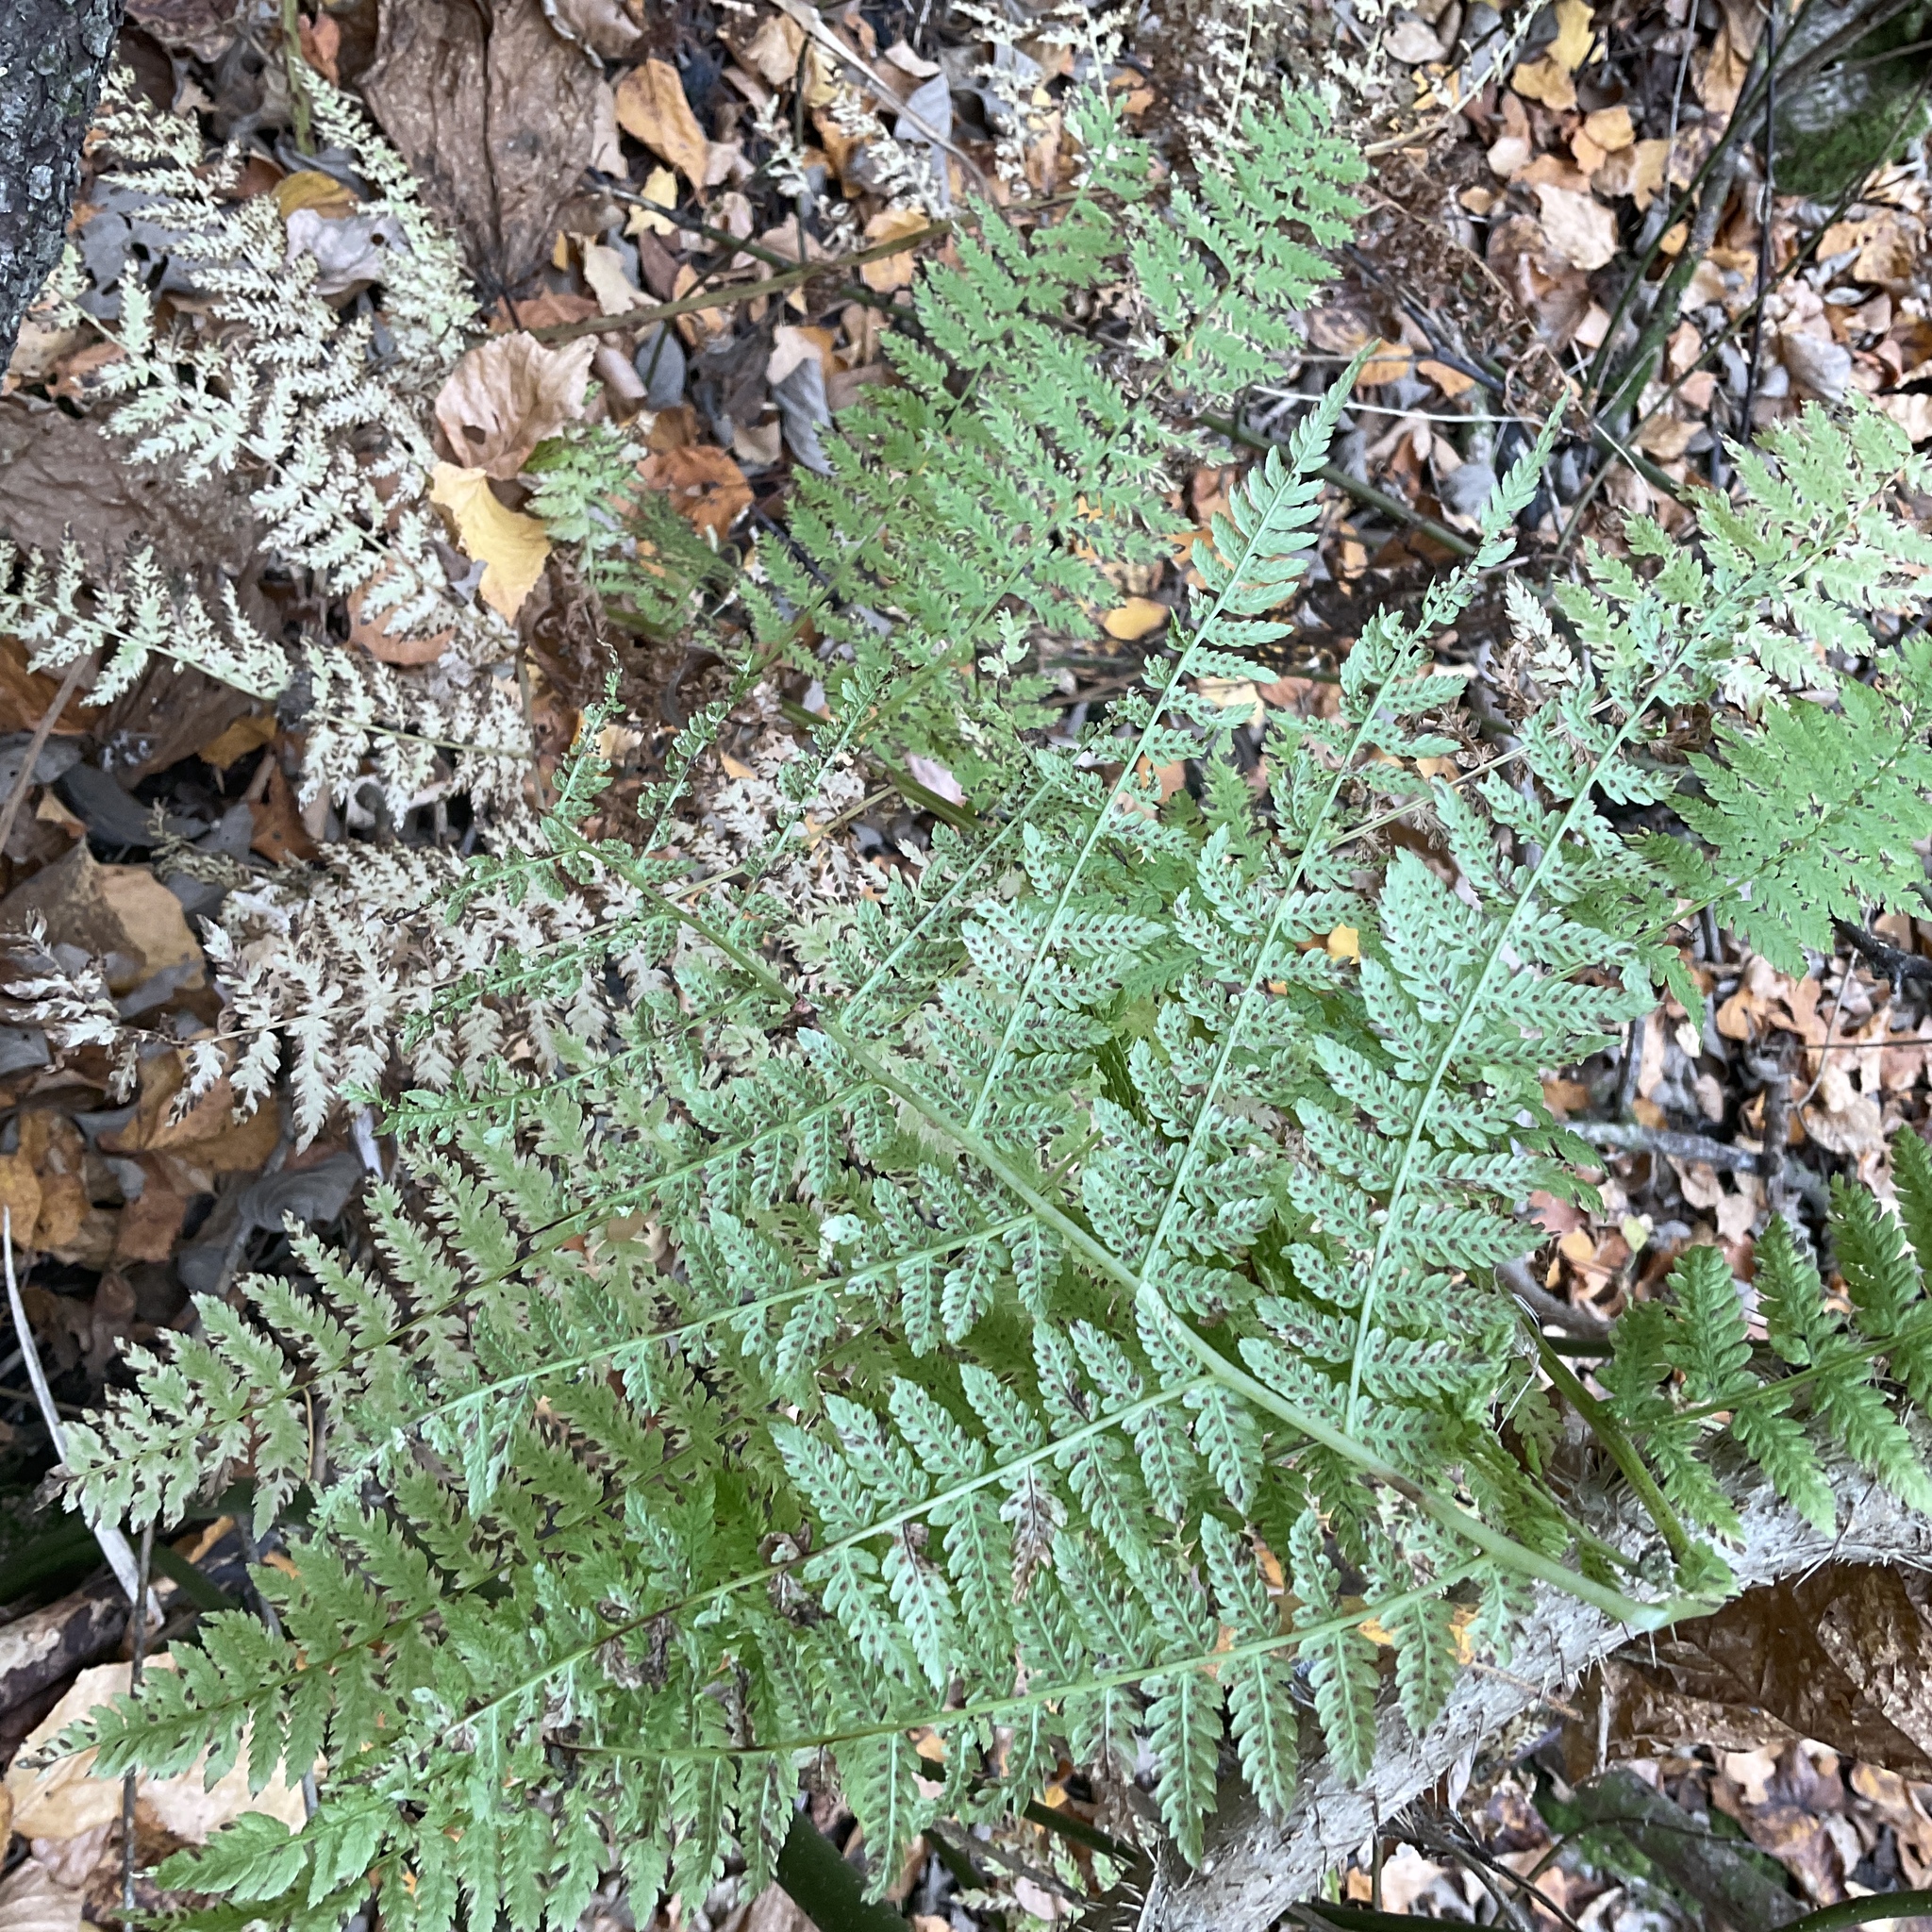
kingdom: Plantae
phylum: Tracheophyta
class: Polypodiopsida
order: Polypodiales
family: Athyriaceae
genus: Athyrium
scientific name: Athyrium filix-femina
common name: Lady fern
